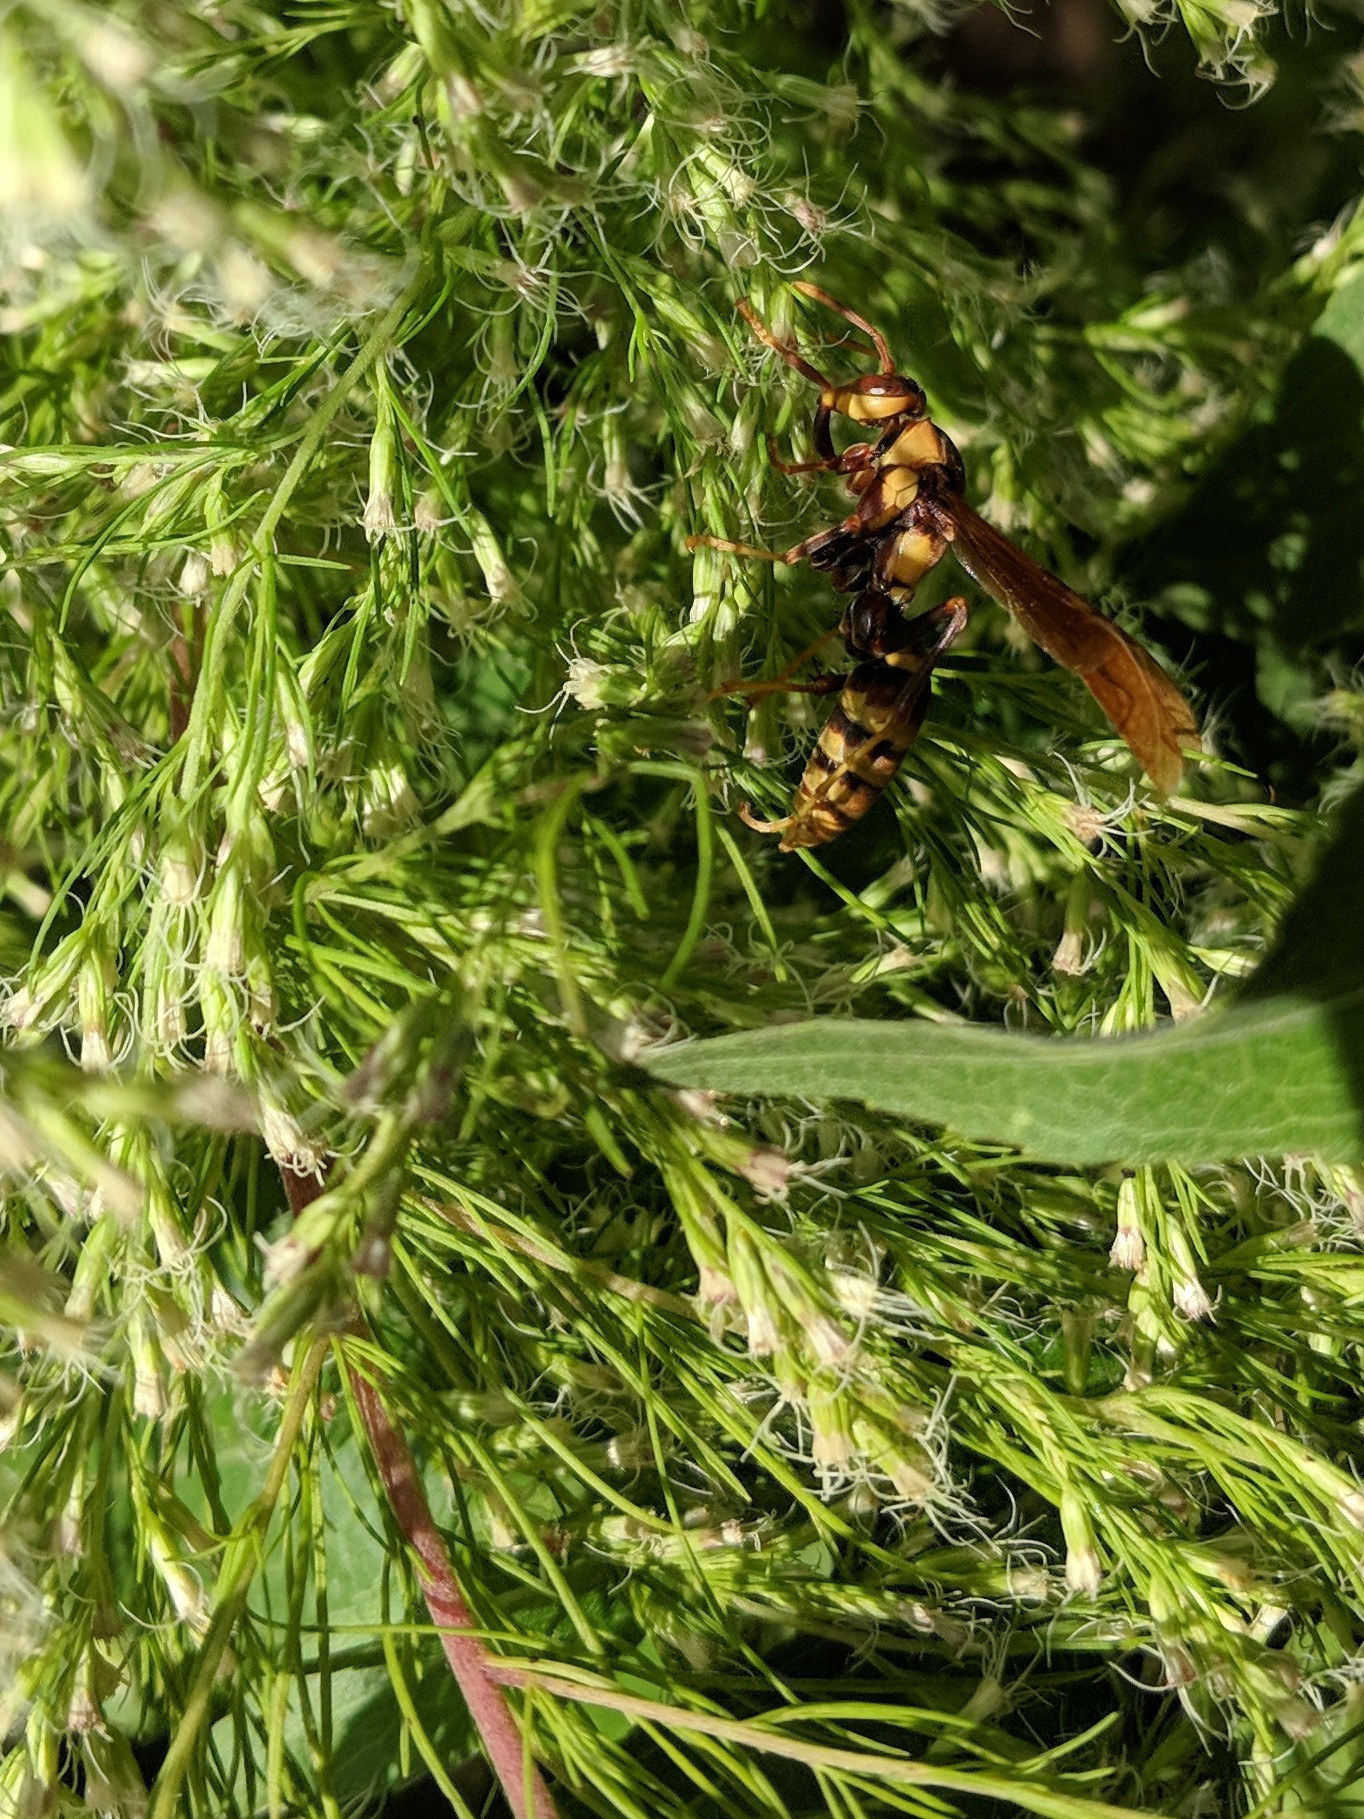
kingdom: Animalia
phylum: Arthropoda
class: Insecta
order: Hymenoptera
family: Eumenidae
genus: Polistes
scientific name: Polistes major
